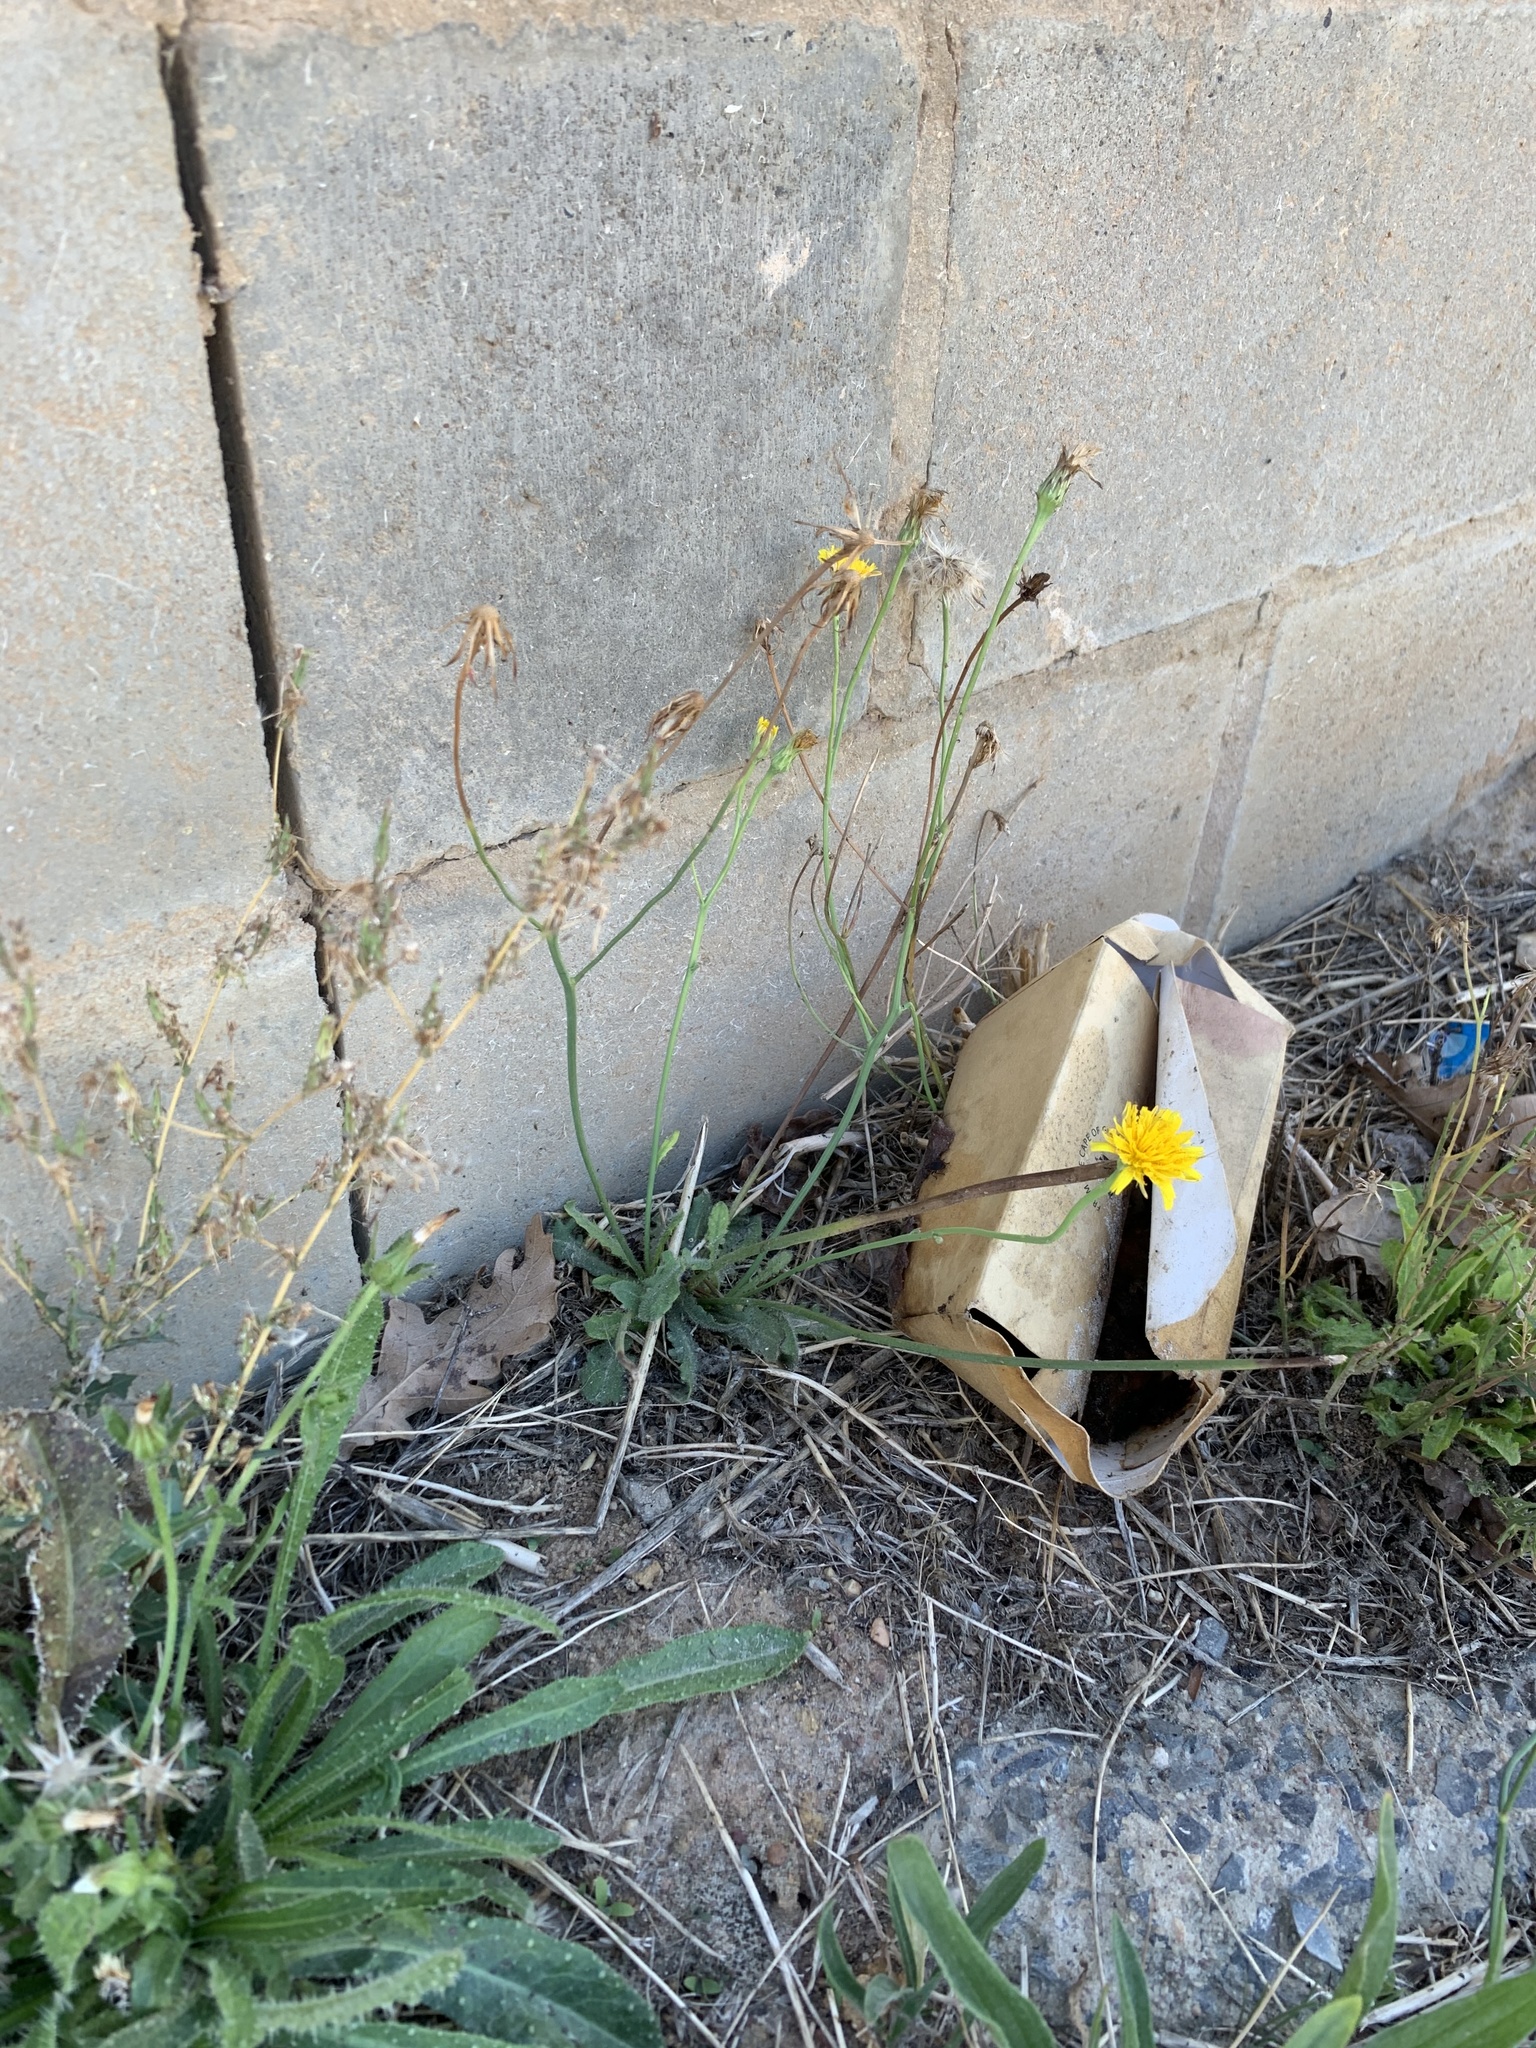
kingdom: Plantae
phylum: Tracheophyta
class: Magnoliopsida
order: Asterales
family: Asteraceae
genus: Hypochaeris
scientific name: Hypochaeris radicata
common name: Flatweed
